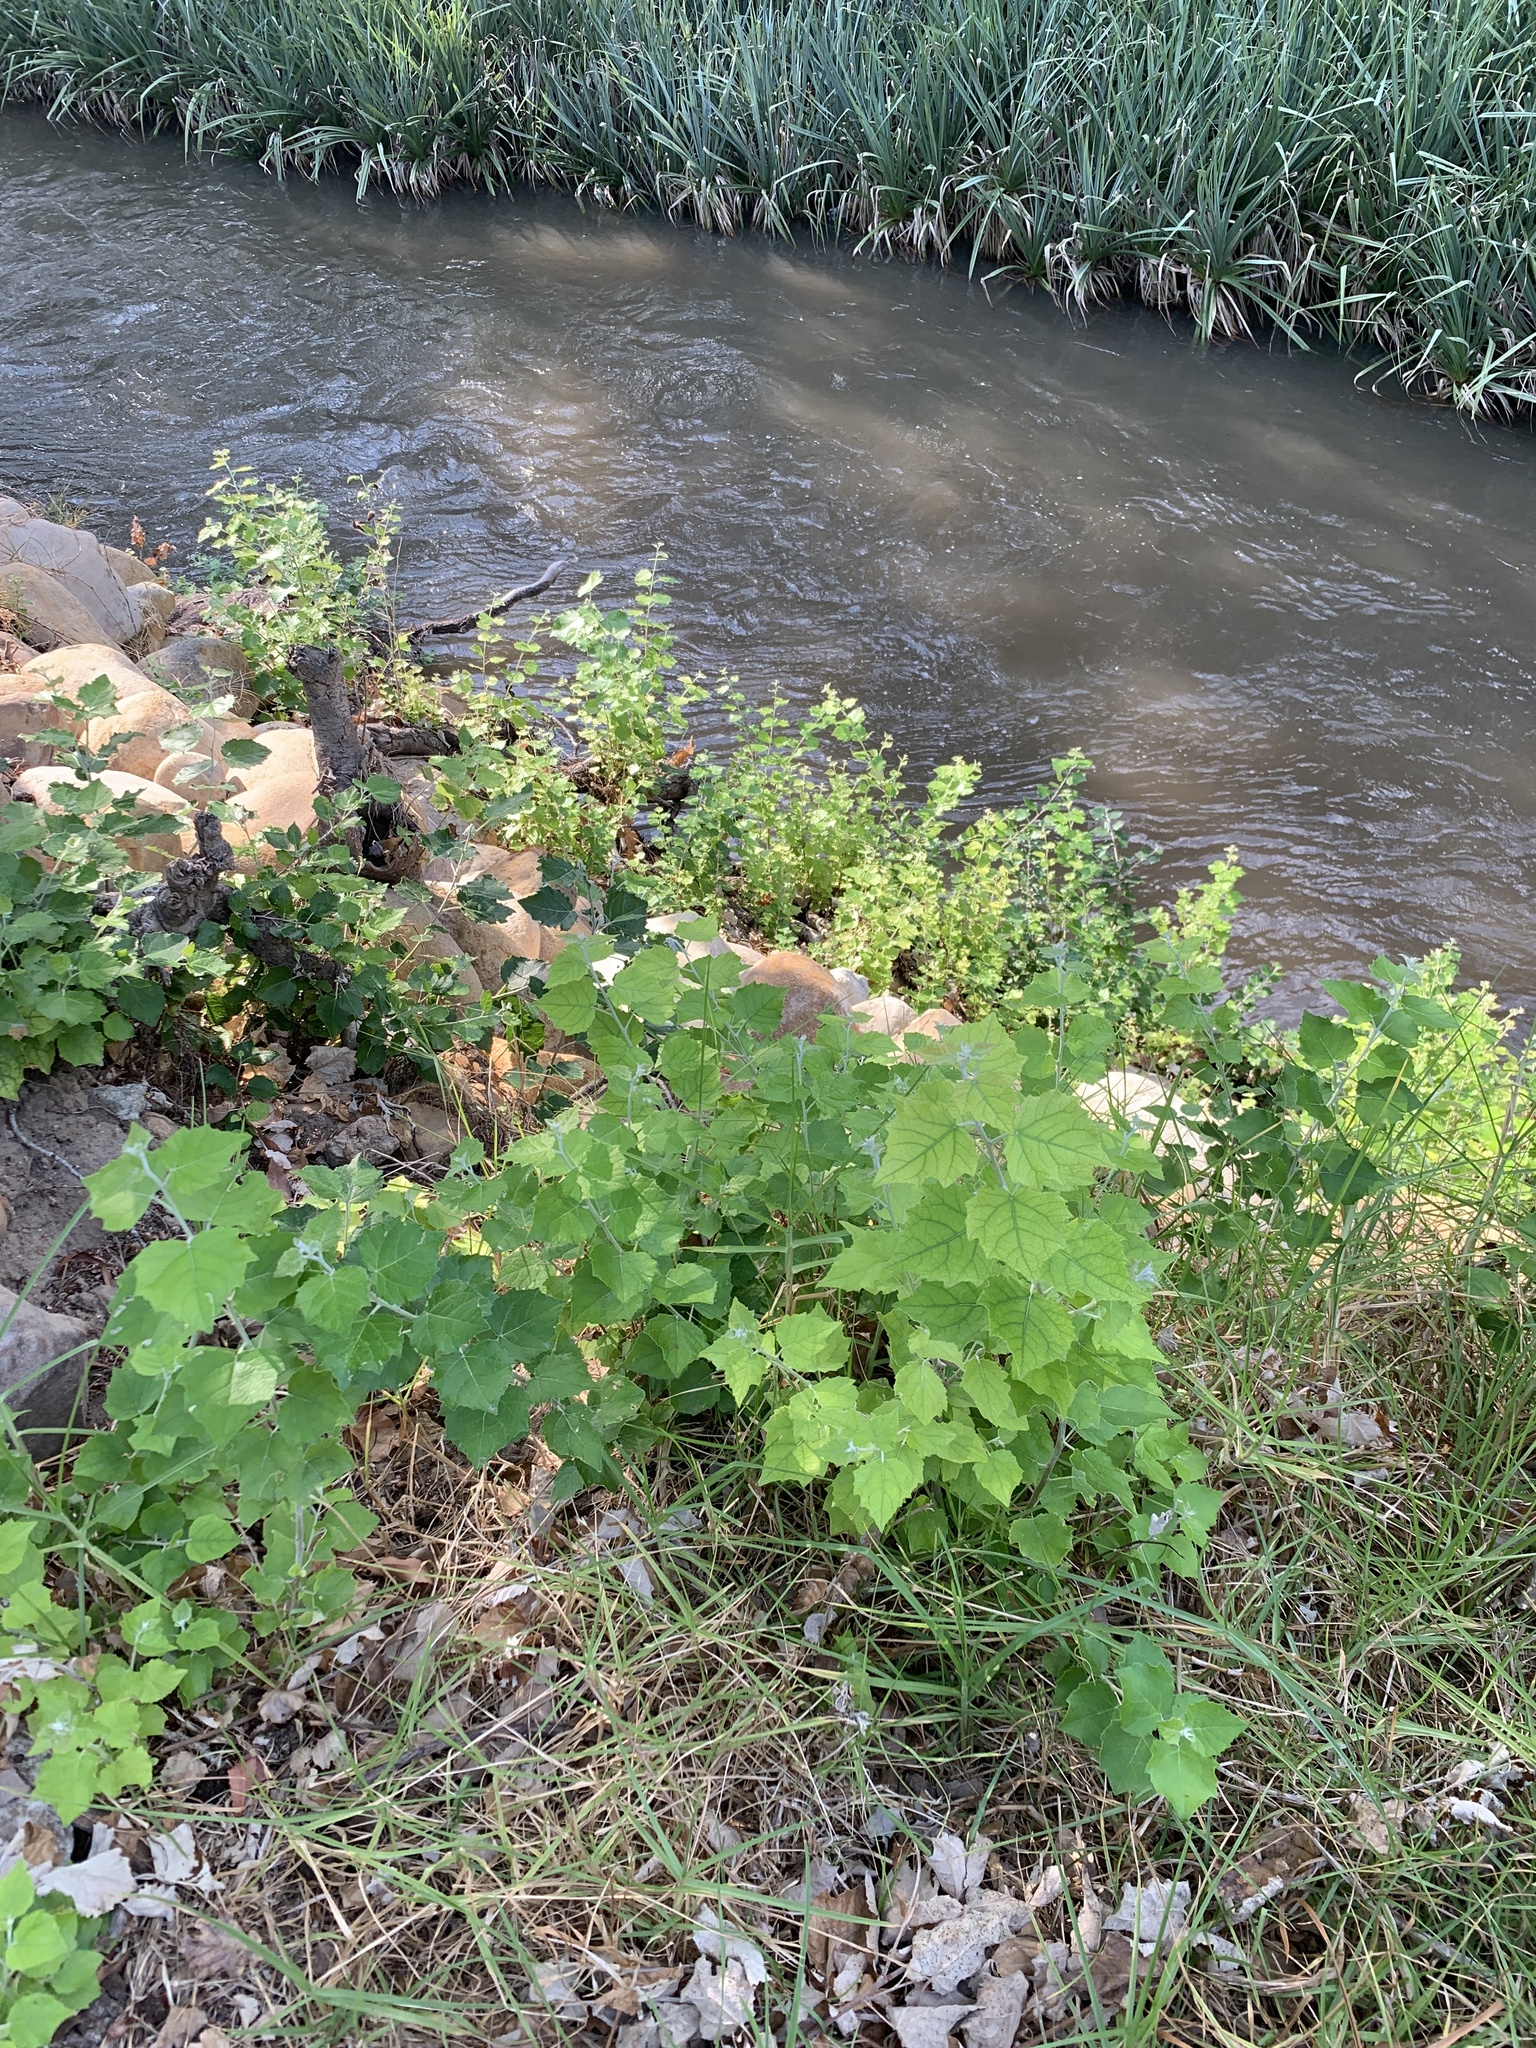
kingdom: Plantae
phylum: Tracheophyta
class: Magnoliopsida
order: Malpighiales
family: Salicaceae
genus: Populus
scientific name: Populus canescens
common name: Gray poplar
